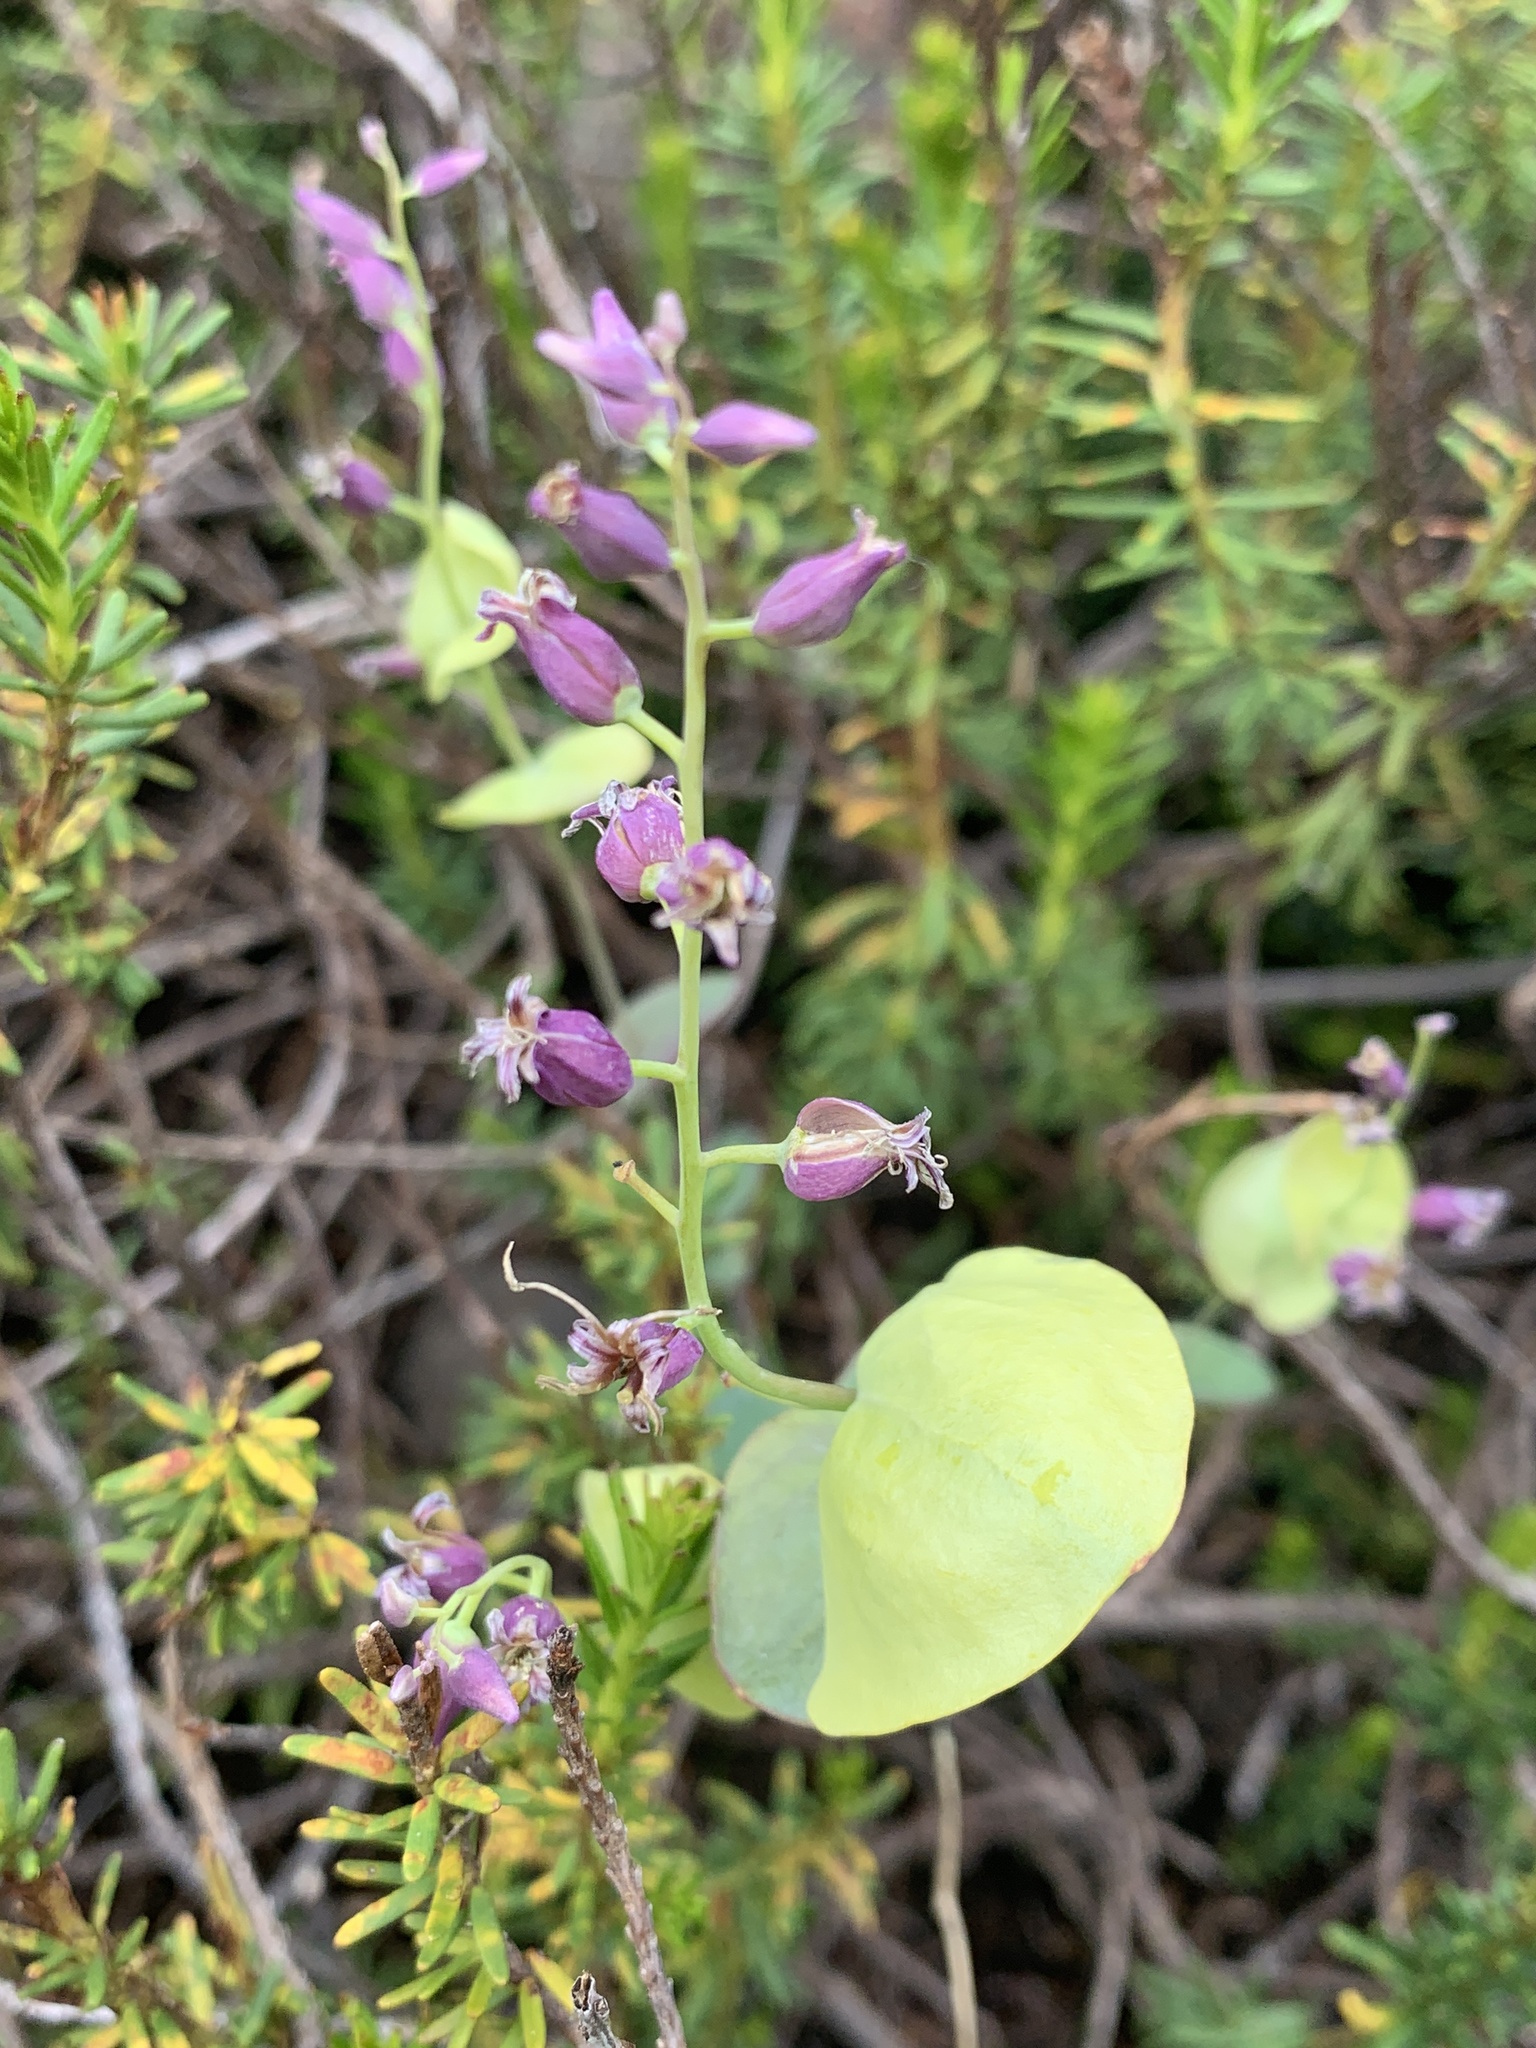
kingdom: Plantae
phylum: Tracheophyta
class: Magnoliopsida
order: Brassicales
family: Brassicaceae
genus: Streptanthus
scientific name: Streptanthus tortuosus
